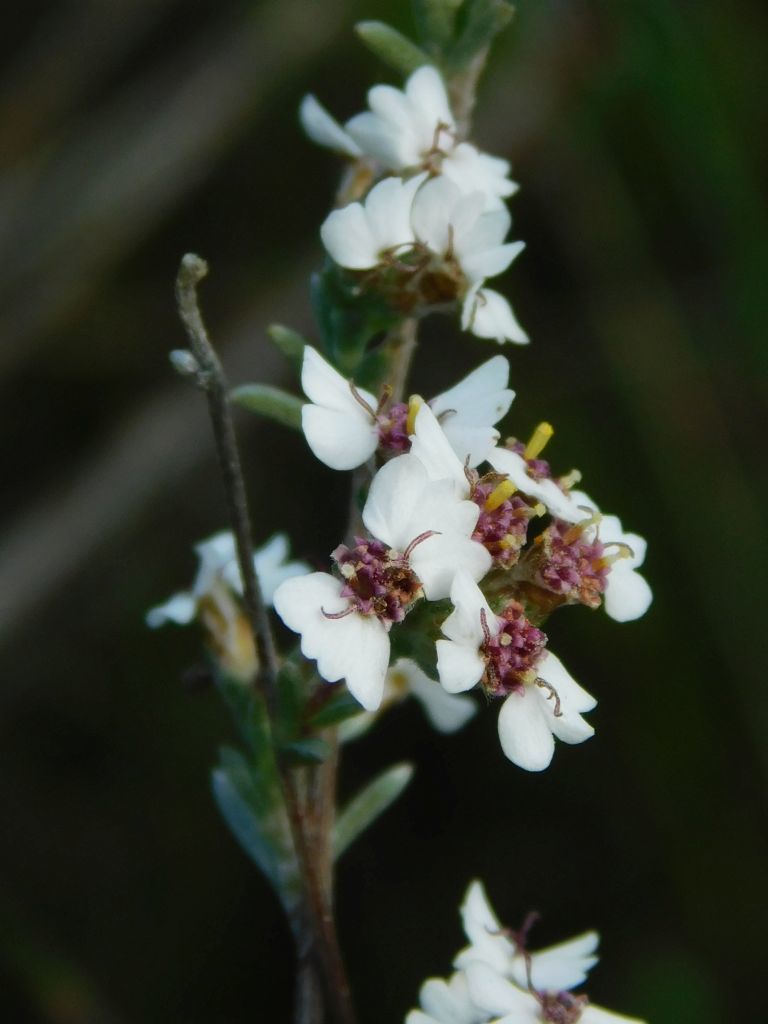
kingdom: Plantae
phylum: Tracheophyta
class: Magnoliopsida
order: Asterales
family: Asteraceae
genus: Eriocephalus
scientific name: Eriocephalus africanus
